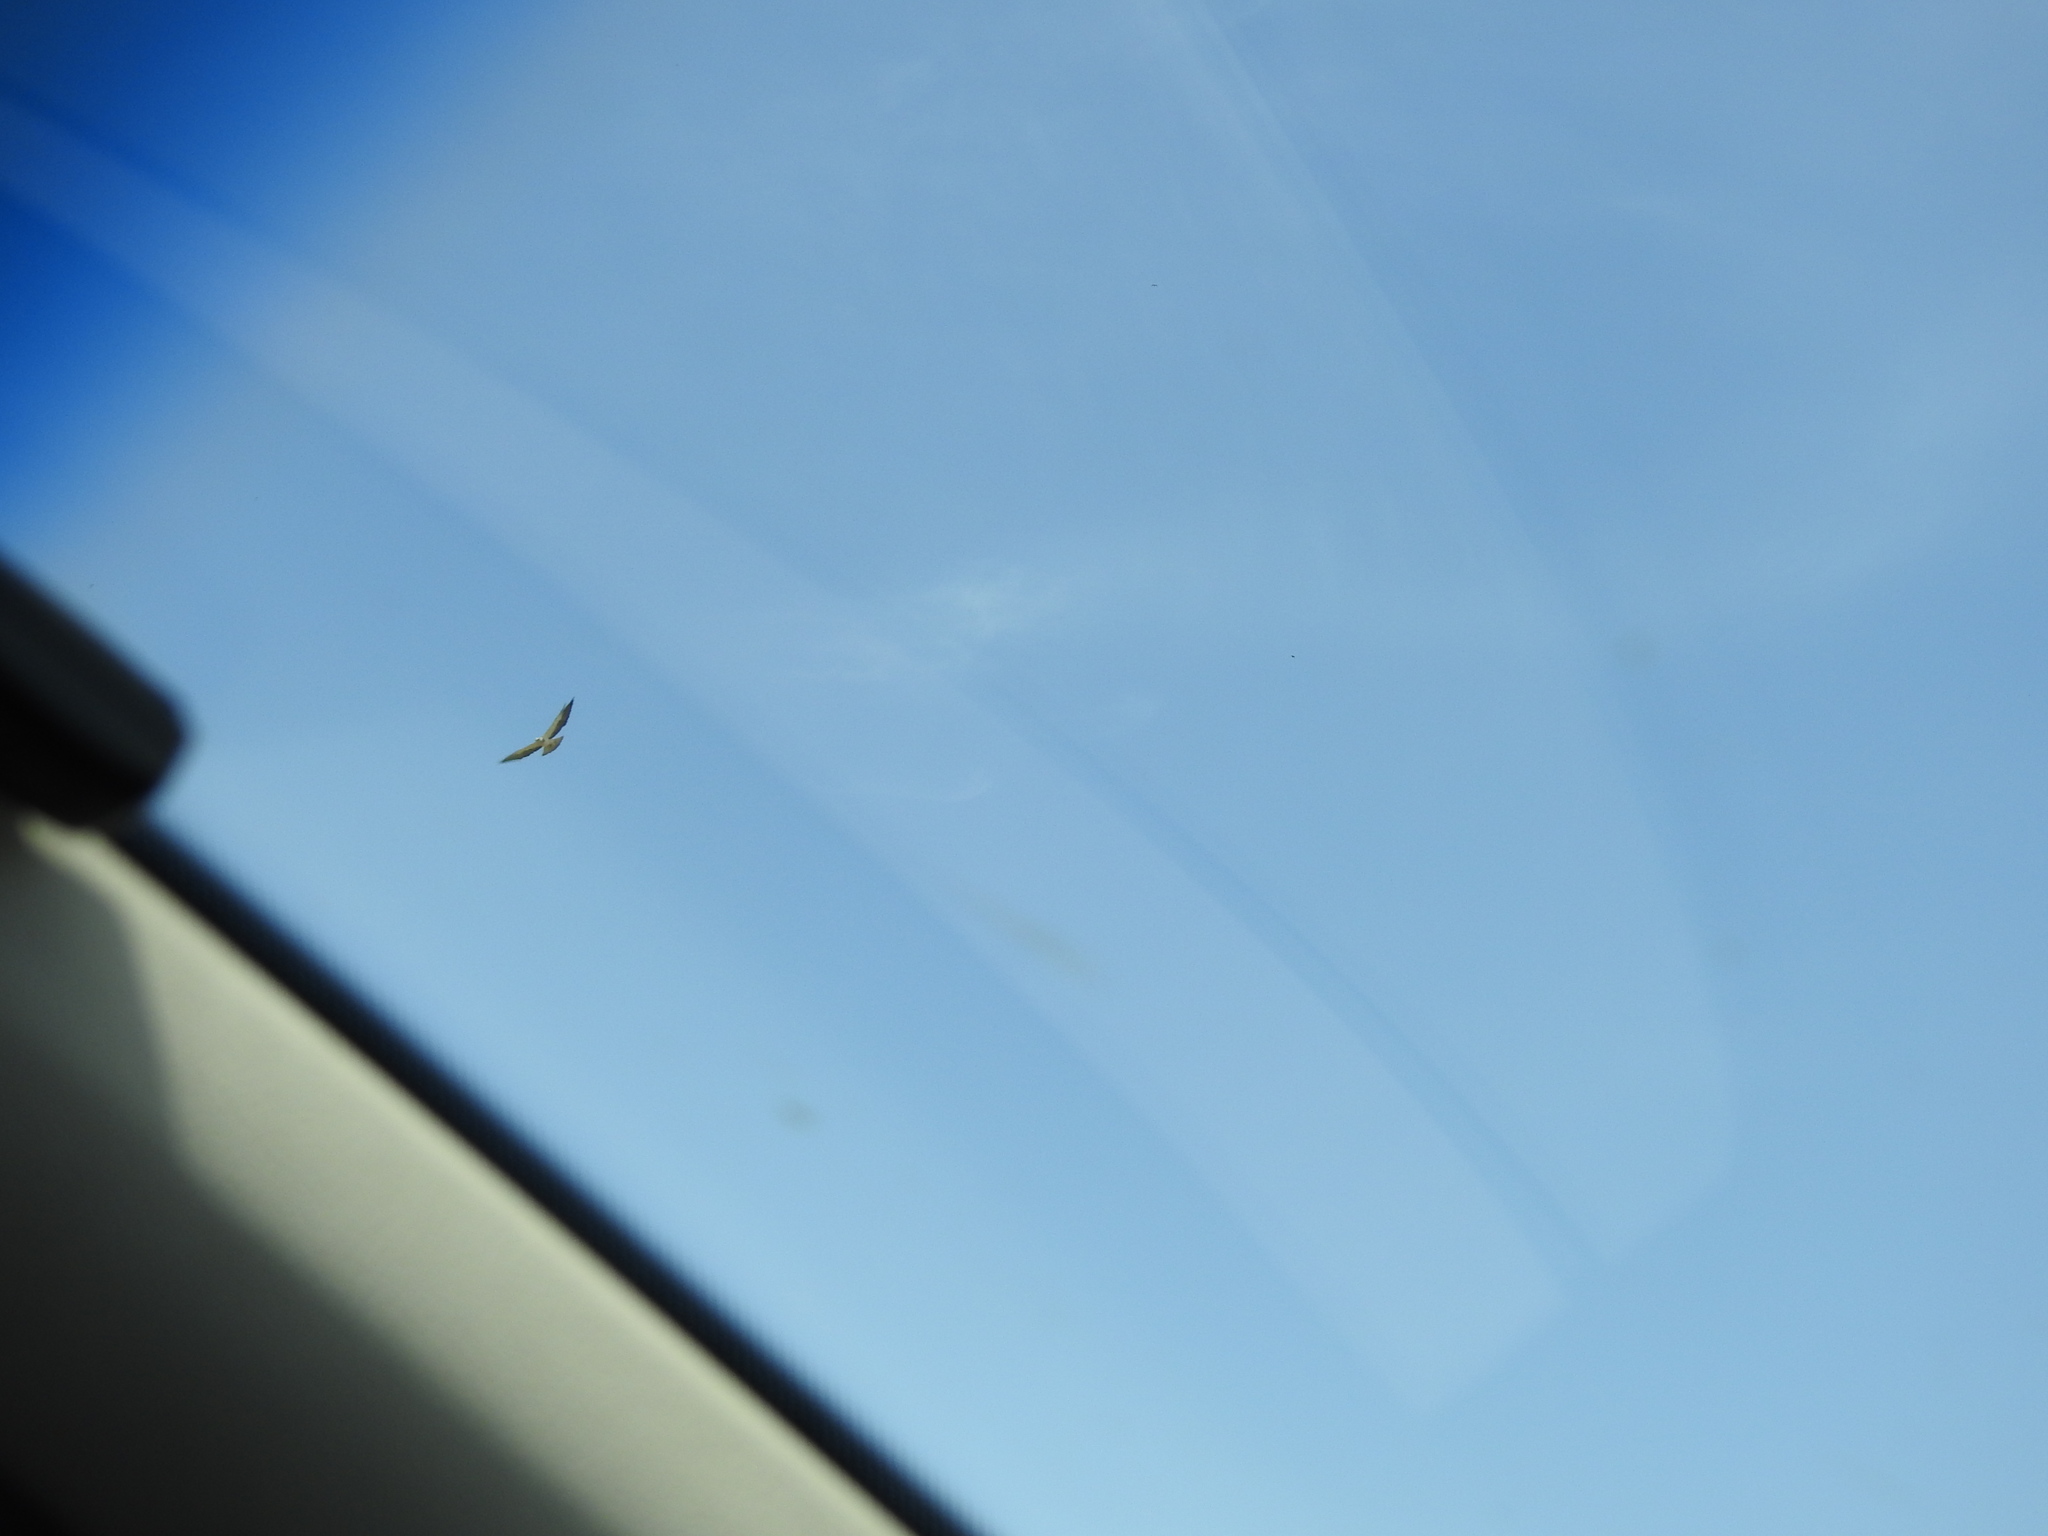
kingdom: Animalia
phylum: Chordata
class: Aves
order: Accipitriformes
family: Accipitridae
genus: Buteo
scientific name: Buteo swainsoni
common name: Swainson's hawk
